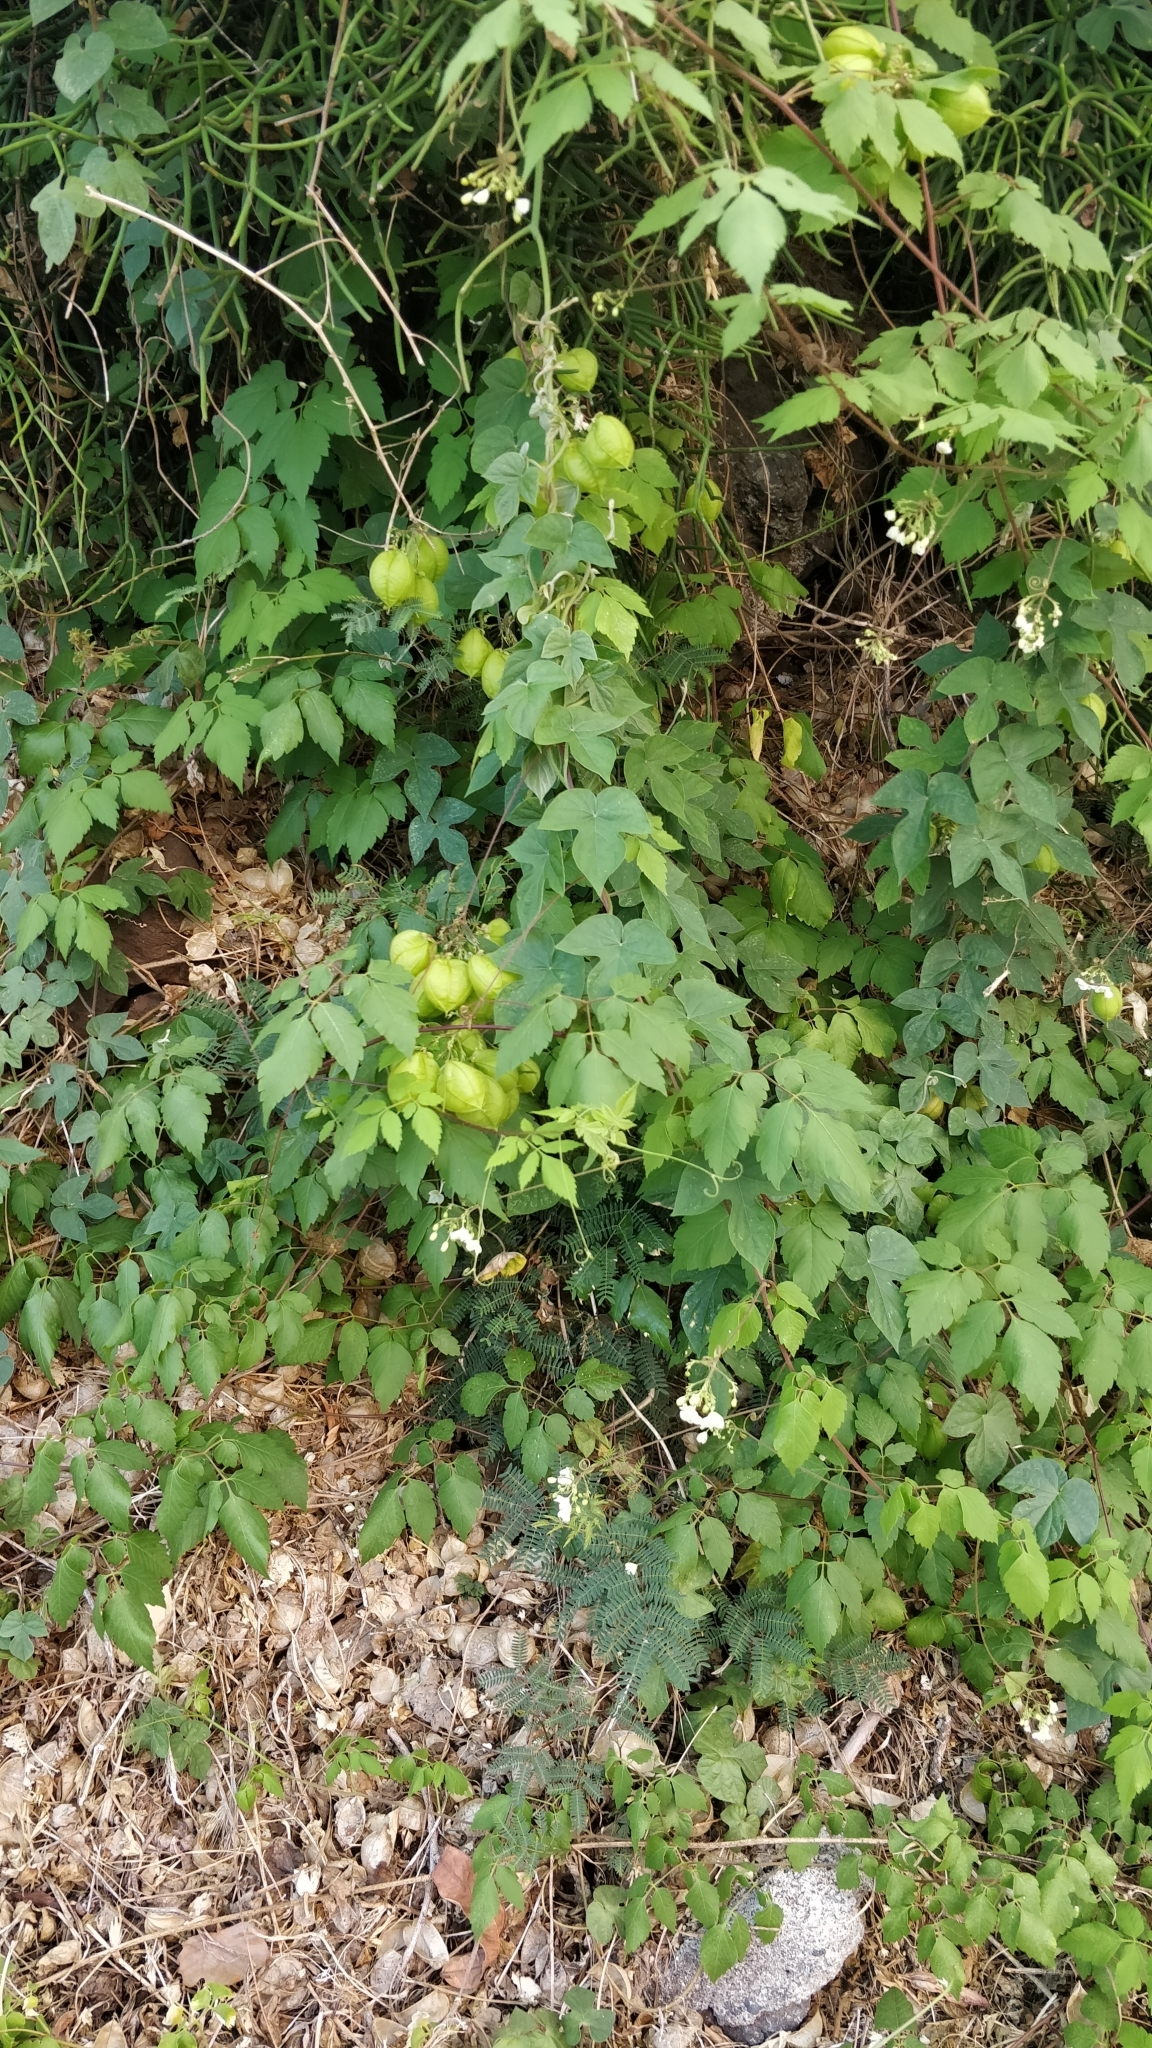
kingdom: Plantae
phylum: Tracheophyta
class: Magnoliopsida
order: Sapindales
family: Sapindaceae
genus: Cardiospermum
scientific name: Cardiospermum grandiflorum
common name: Balloon vine
